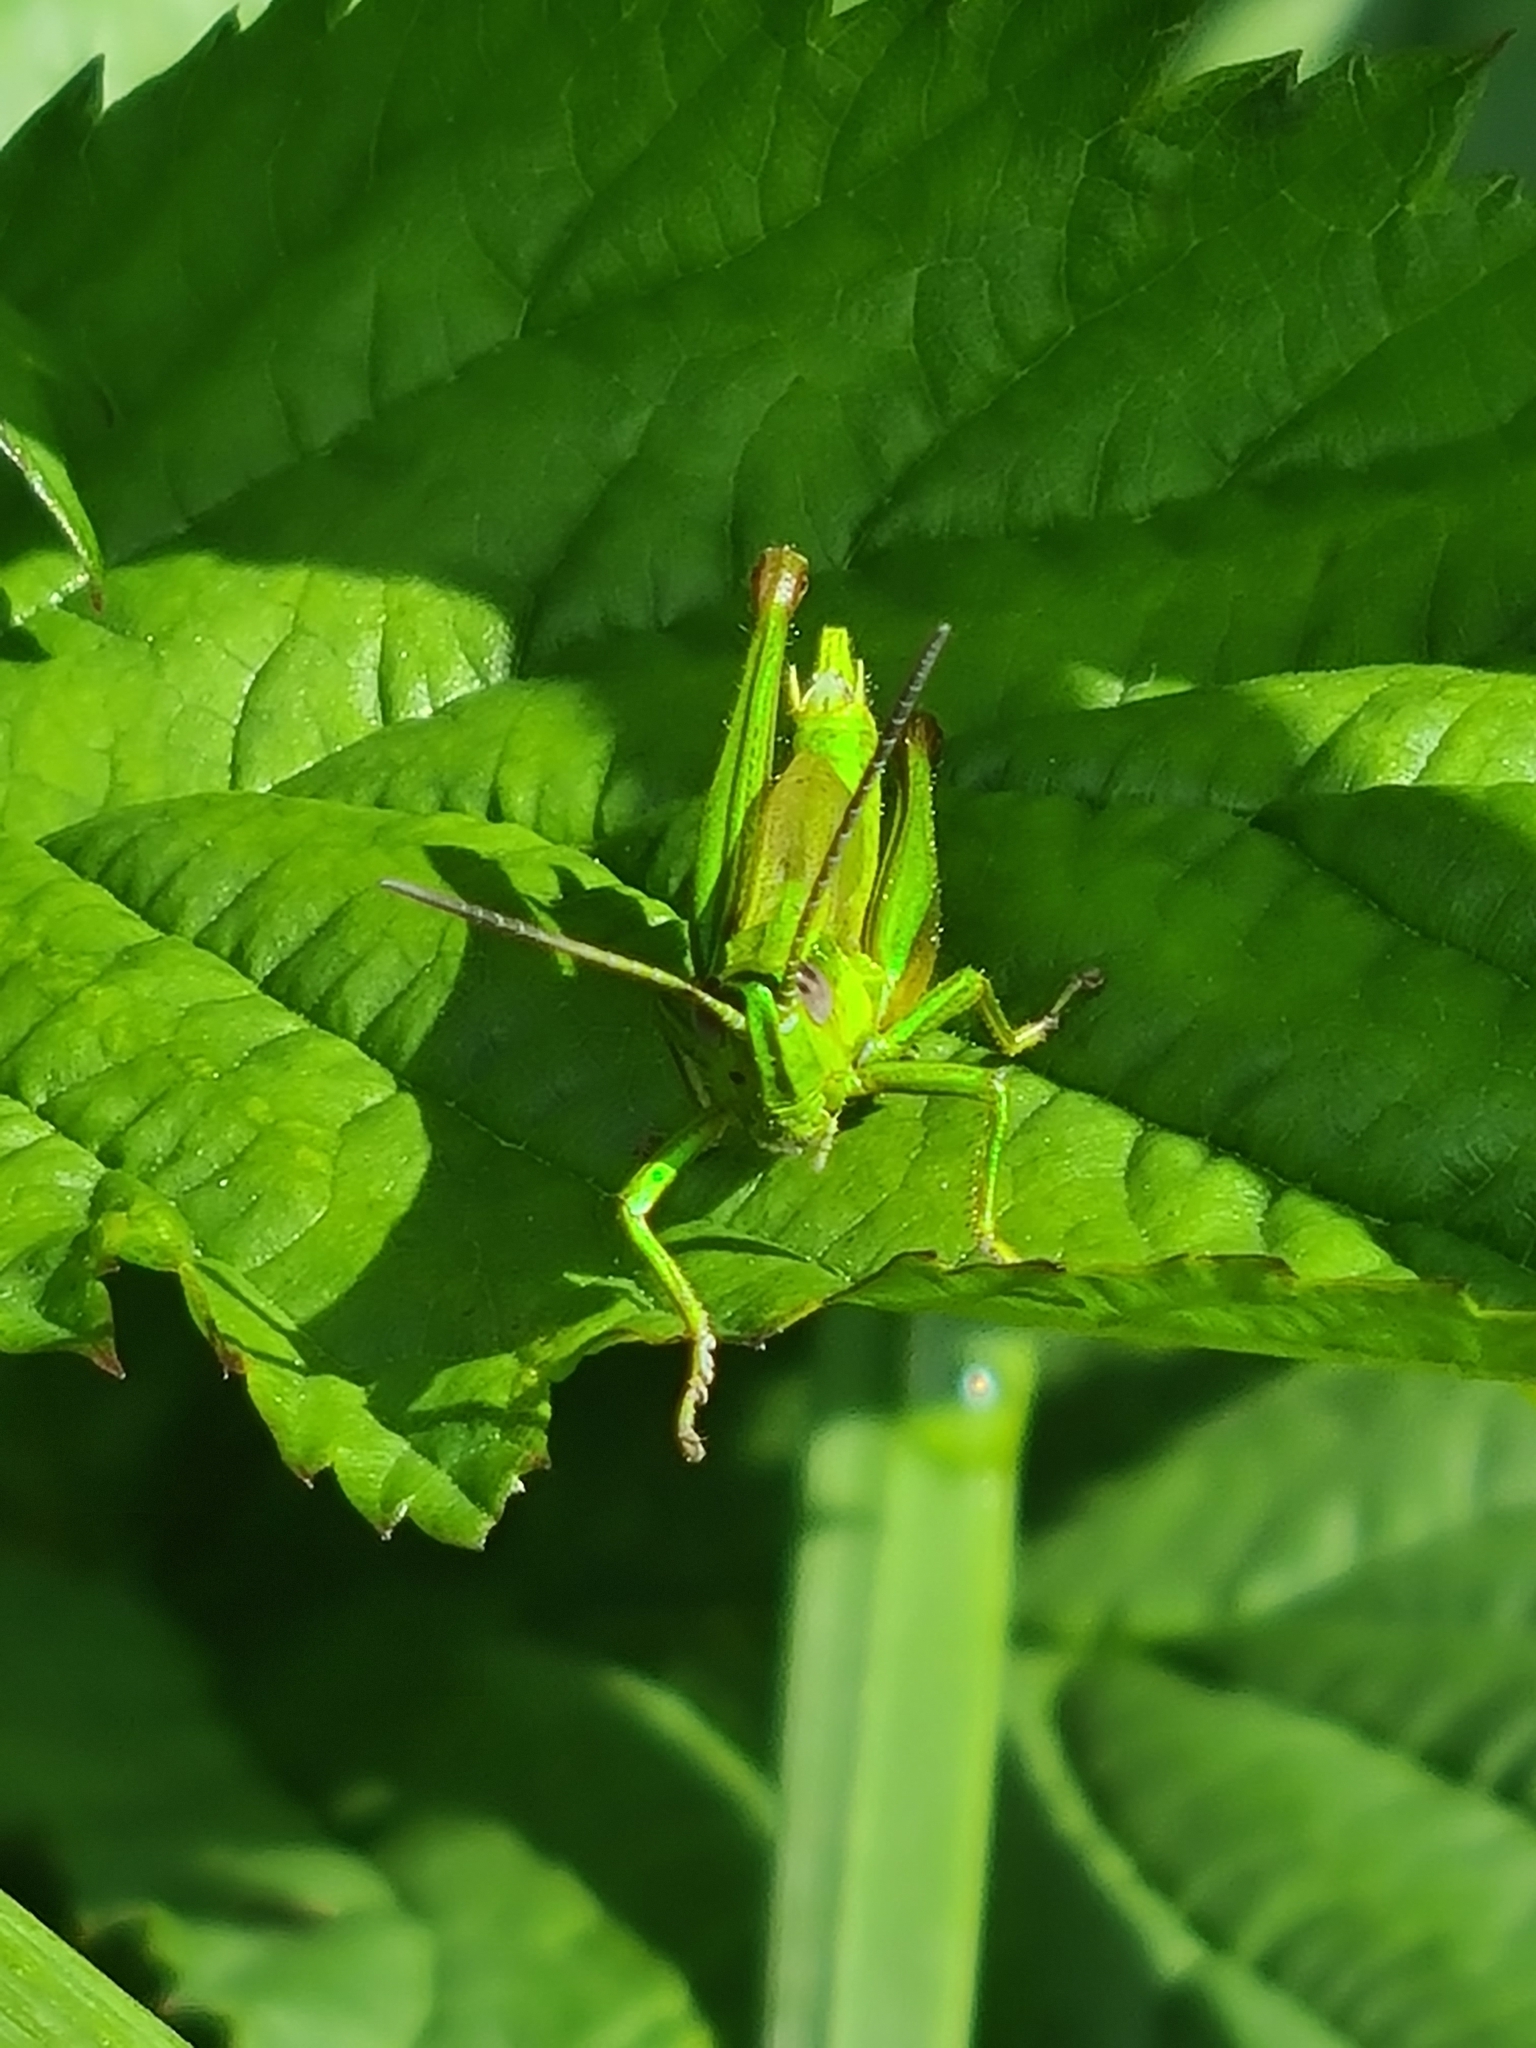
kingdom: Animalia
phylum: Arthropoda
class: Insecta
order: Orthoptera
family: Acrididae
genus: Euthystira
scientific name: Euthystira brachyptera
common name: Small gold grasshopper
